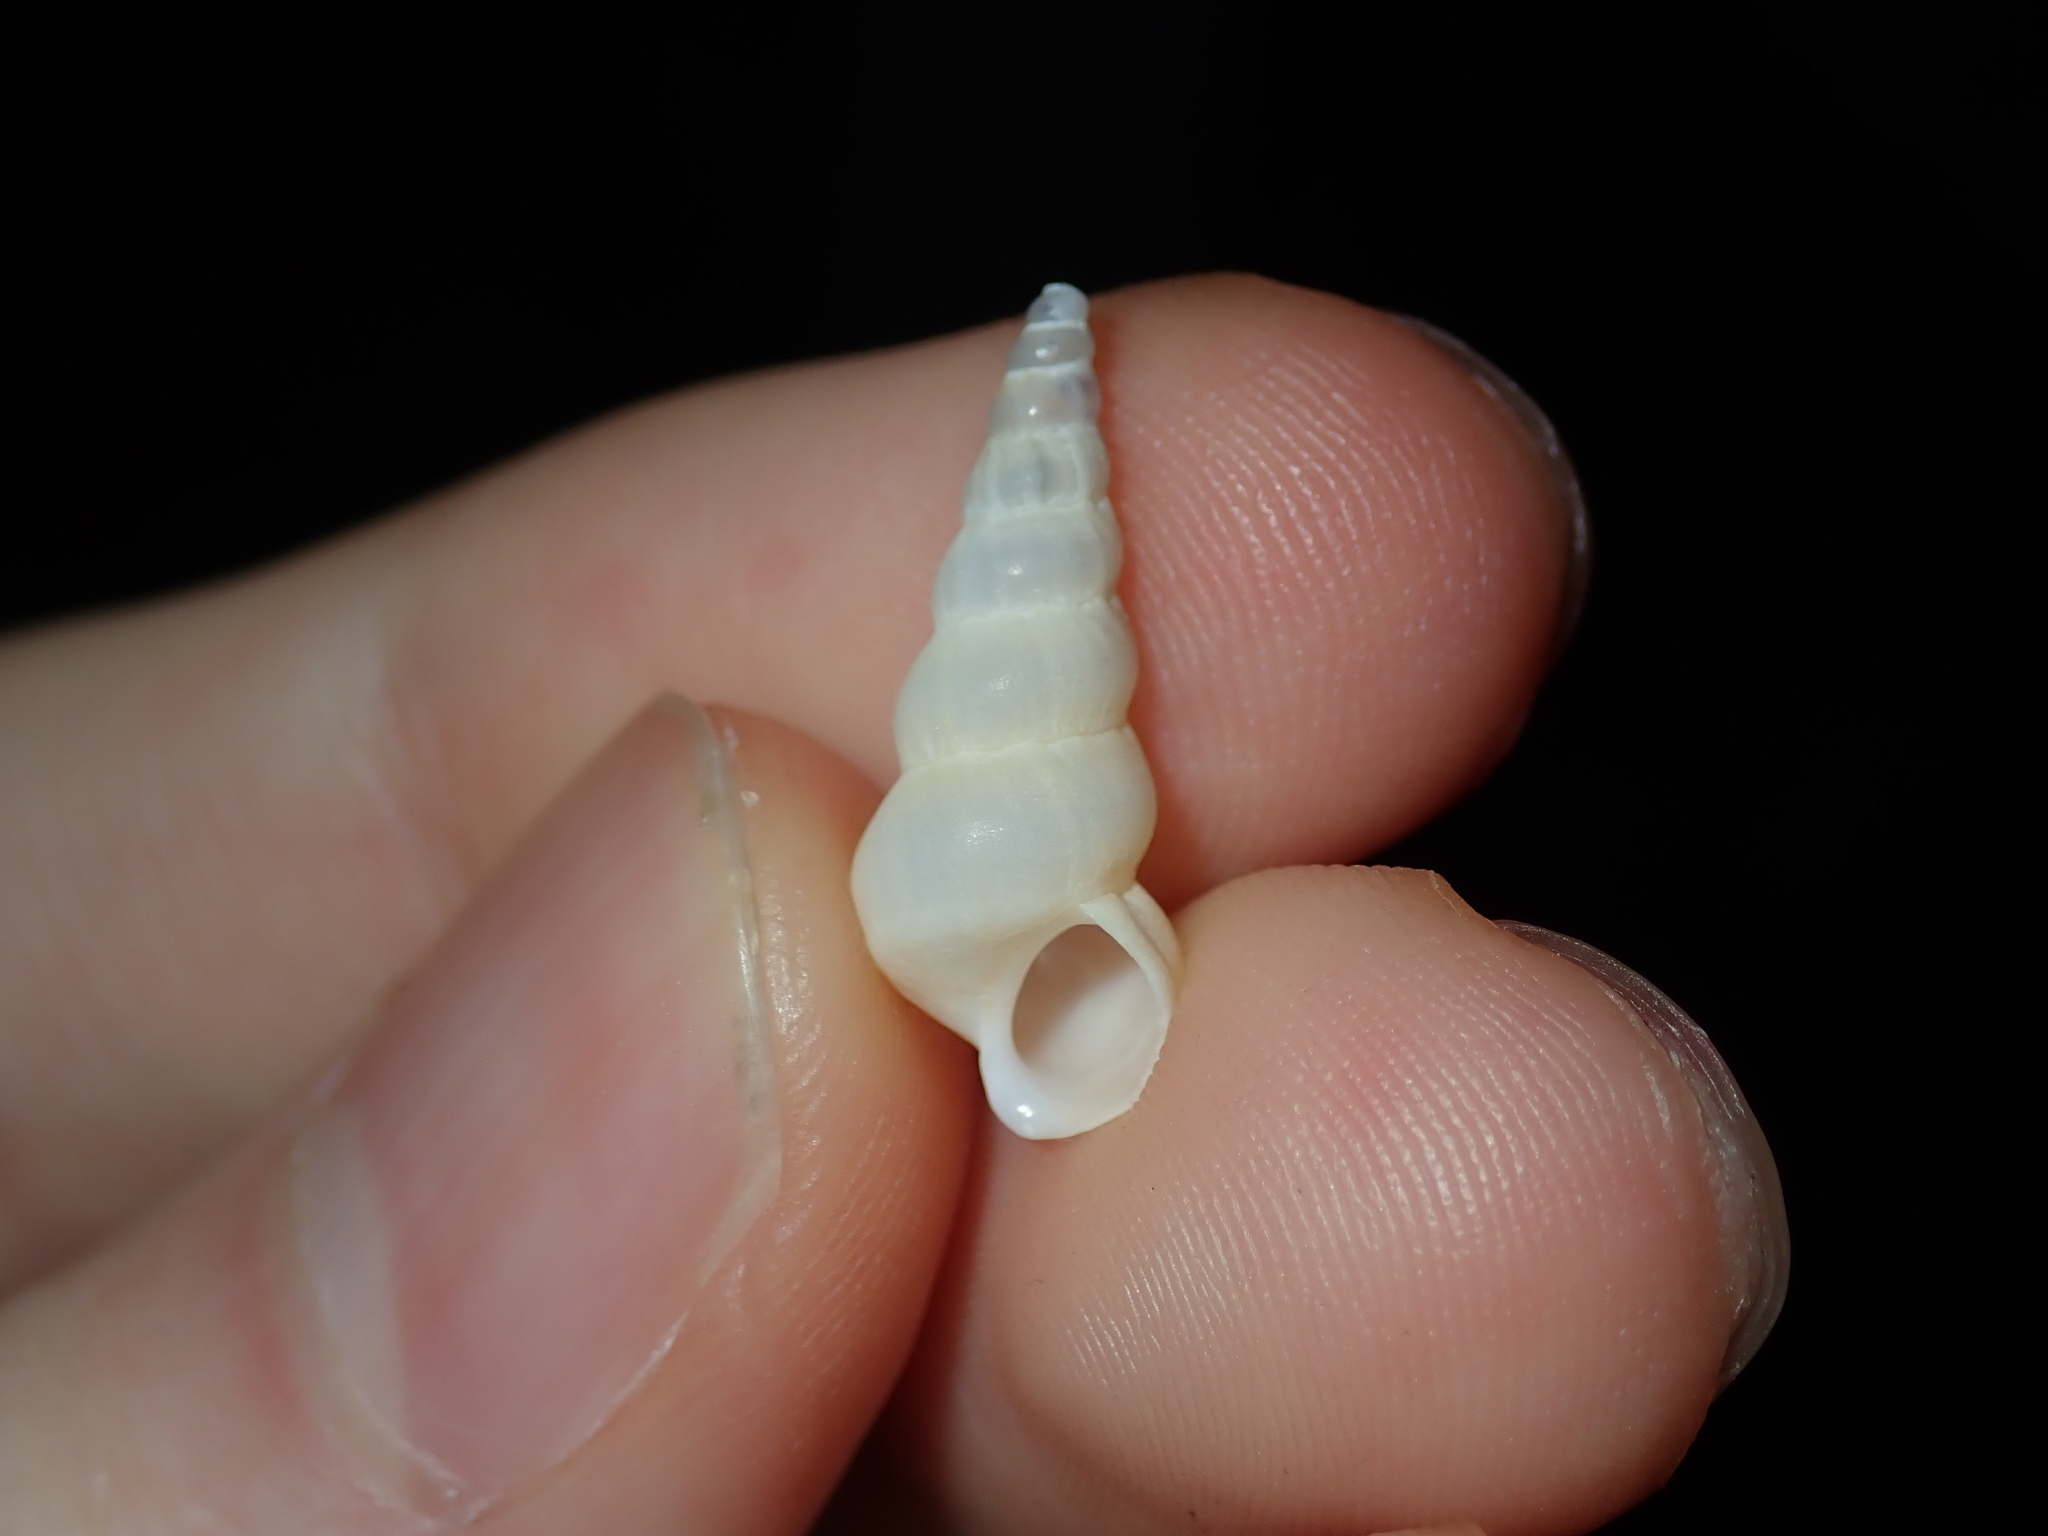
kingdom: Animalia
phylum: Mollusca
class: Gastropoda
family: Epitoniidae
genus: Opalia
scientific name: Opalia ballinensis
